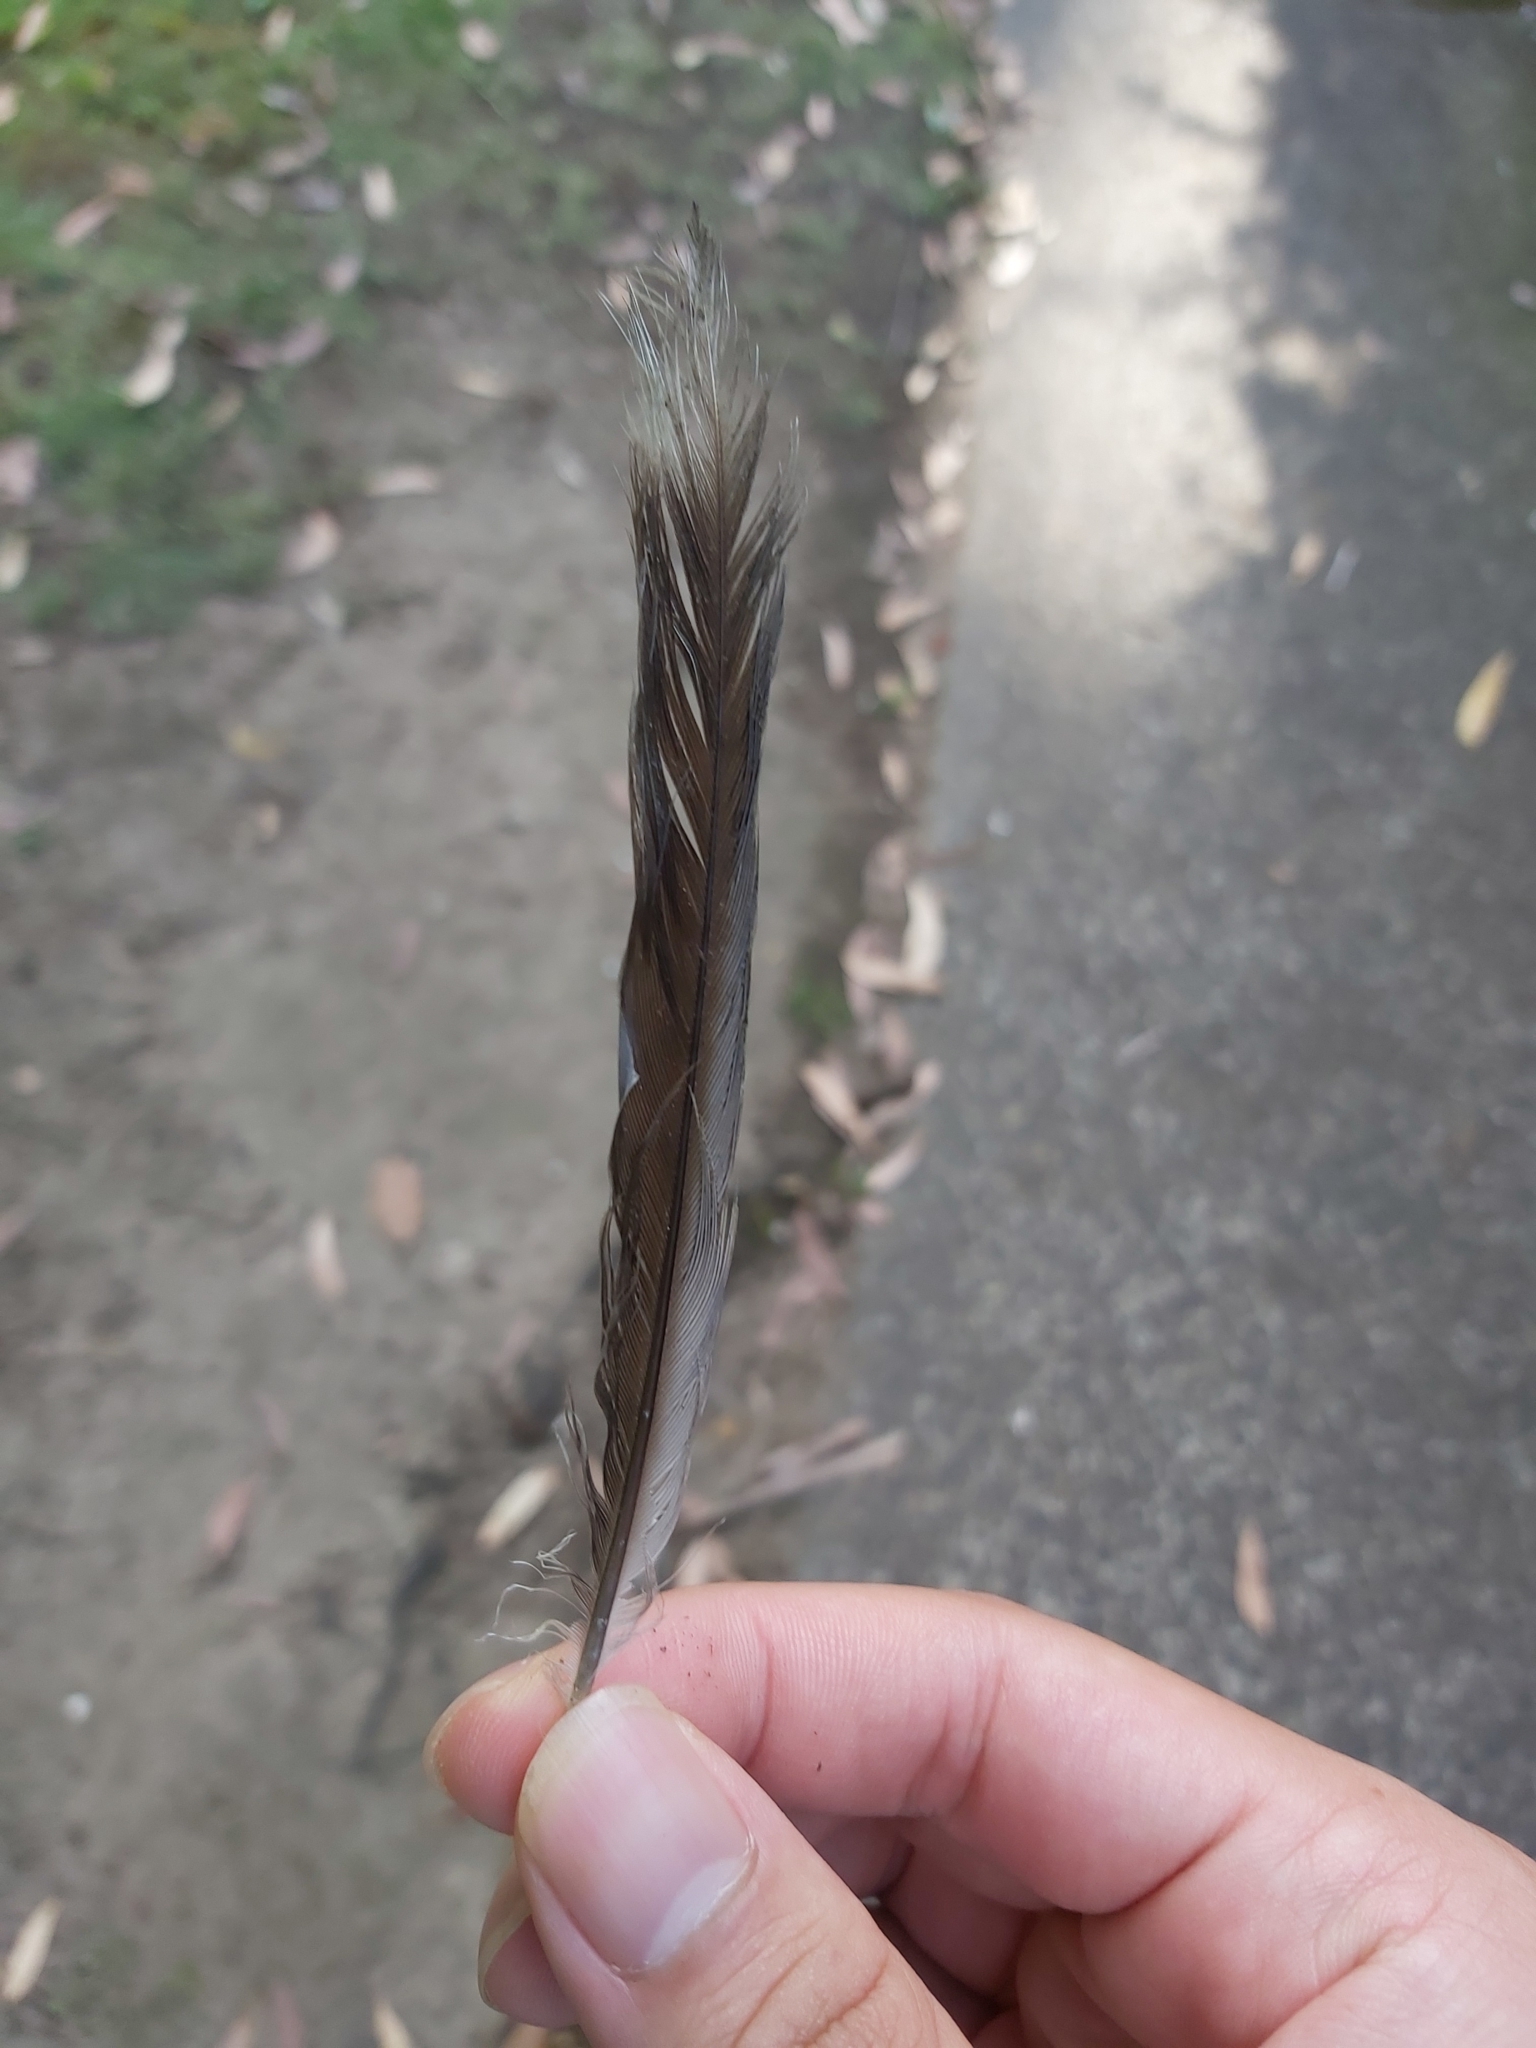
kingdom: Animalia
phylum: Chordata
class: Aves
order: Passeriformes
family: Meliphagidae
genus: Manorina
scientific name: Manorina melanocephala
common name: Noisy miner
